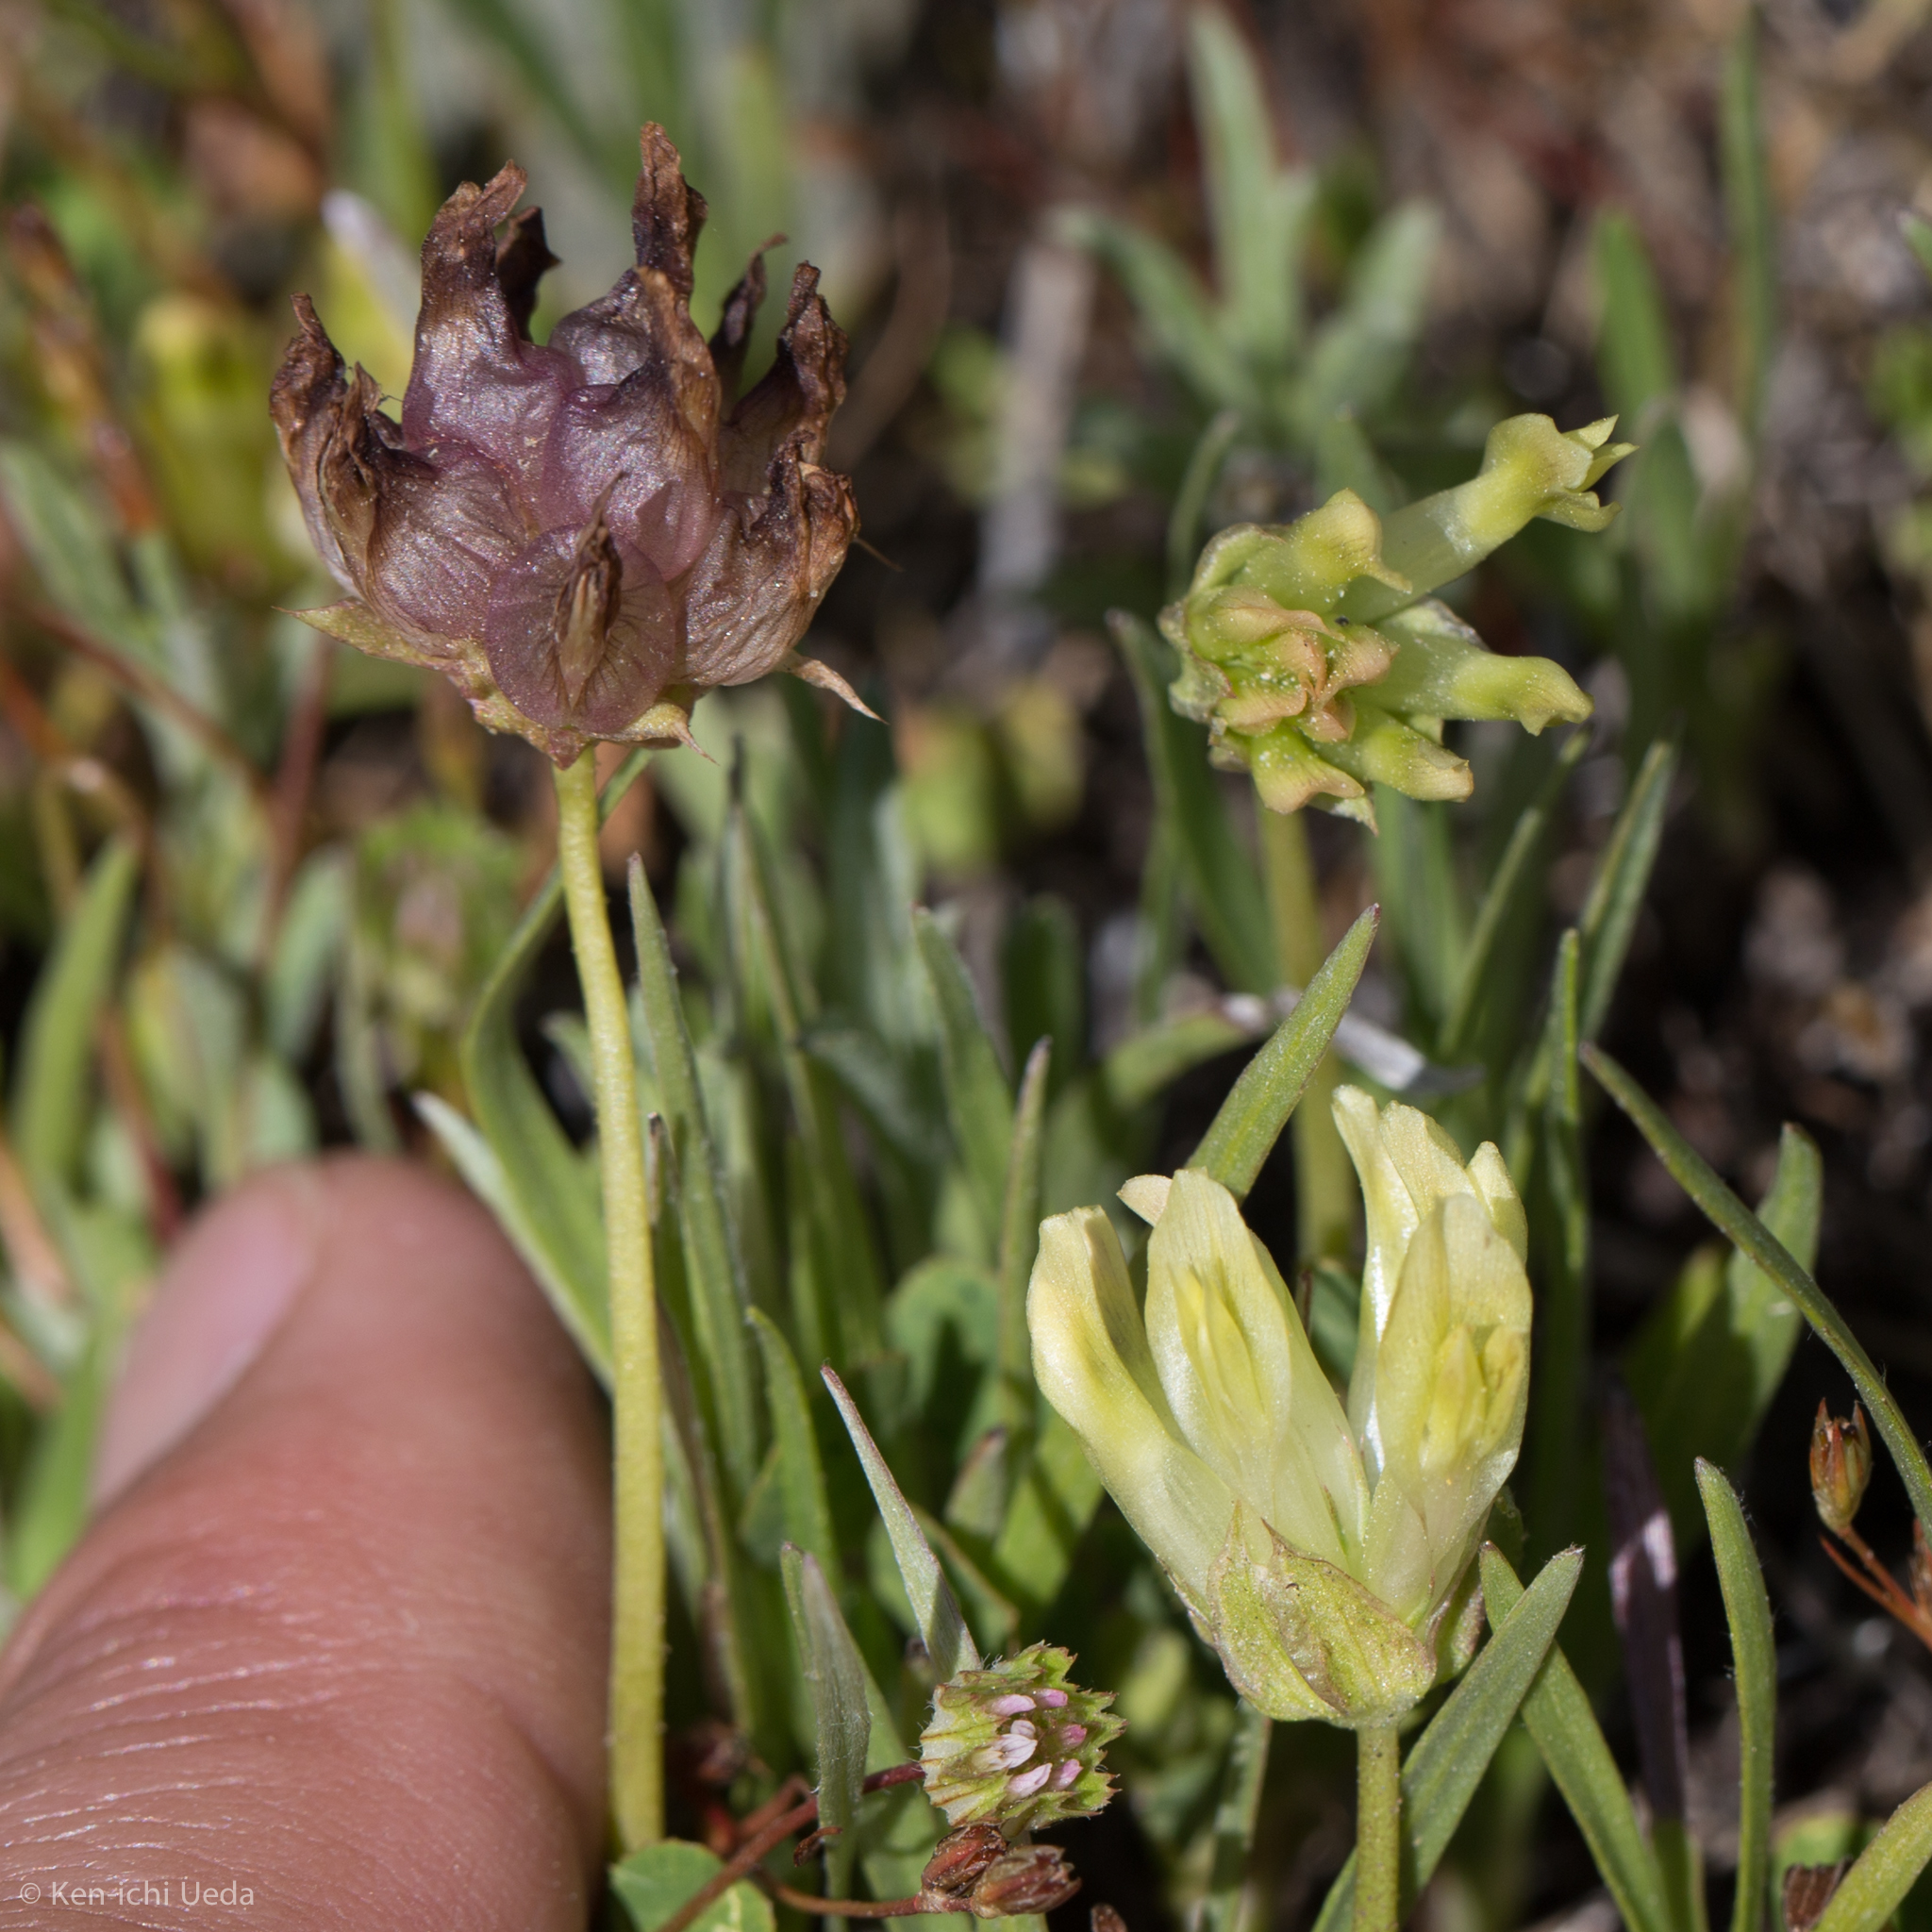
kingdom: Plantae
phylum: Tracheophyta
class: Magnoliopsida
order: Fabales
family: Fabaceae
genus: Trifolium
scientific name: Trifolium fucatum
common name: Puff clover
